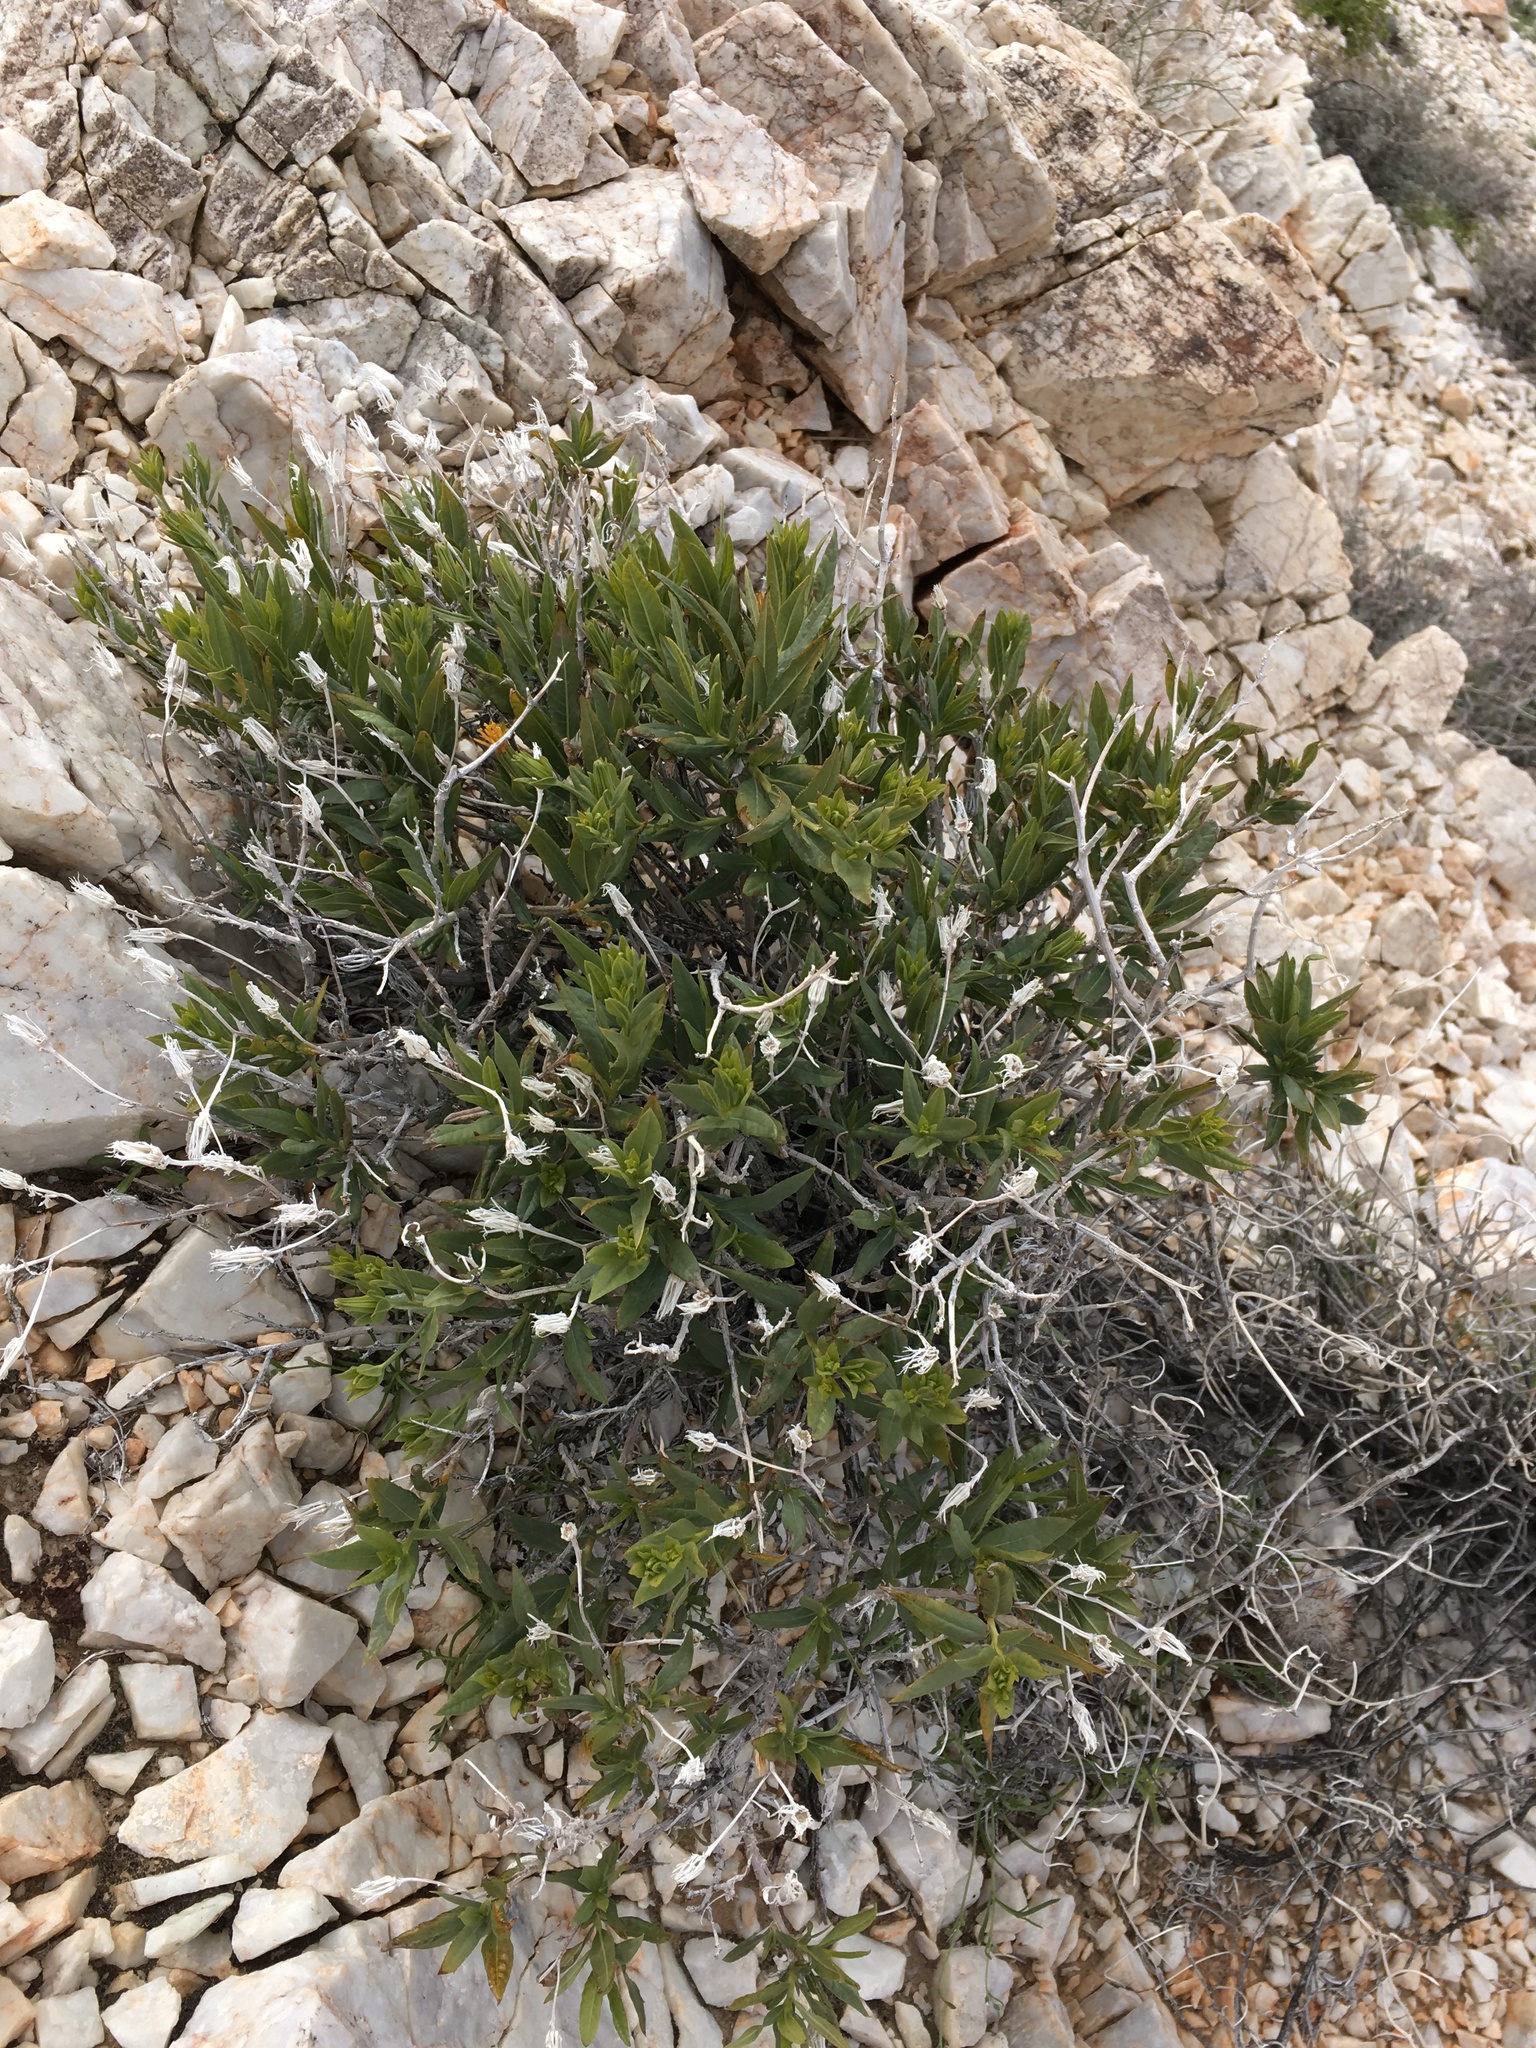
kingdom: Plantae
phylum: Tracheophyta
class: Magnoliopsida
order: Asterales
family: Asteraceae
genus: Trixis
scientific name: Trixis californica
